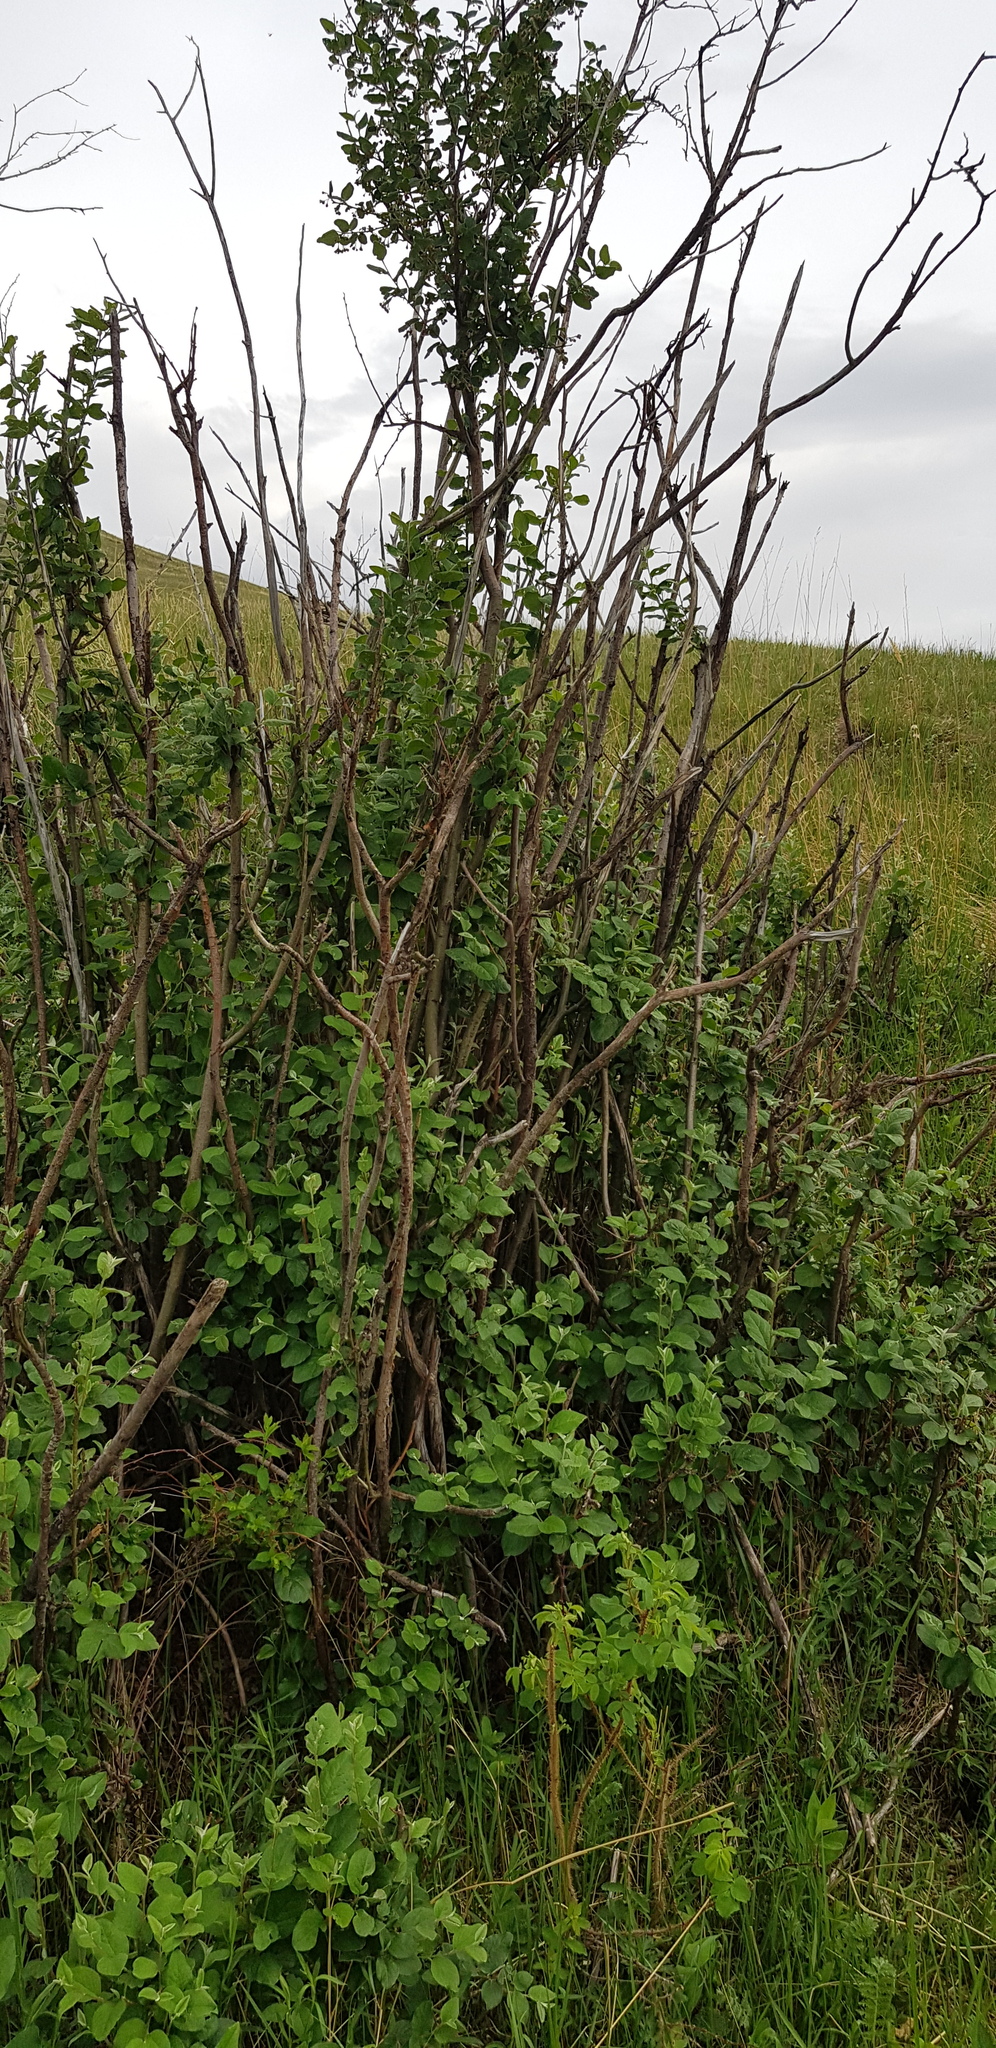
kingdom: Plantae
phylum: Tracheophyta
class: Magnoliopsida
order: Rosales
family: Rosaceae
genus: Cotoneaster
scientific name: Cotoneaster melanocarpus
